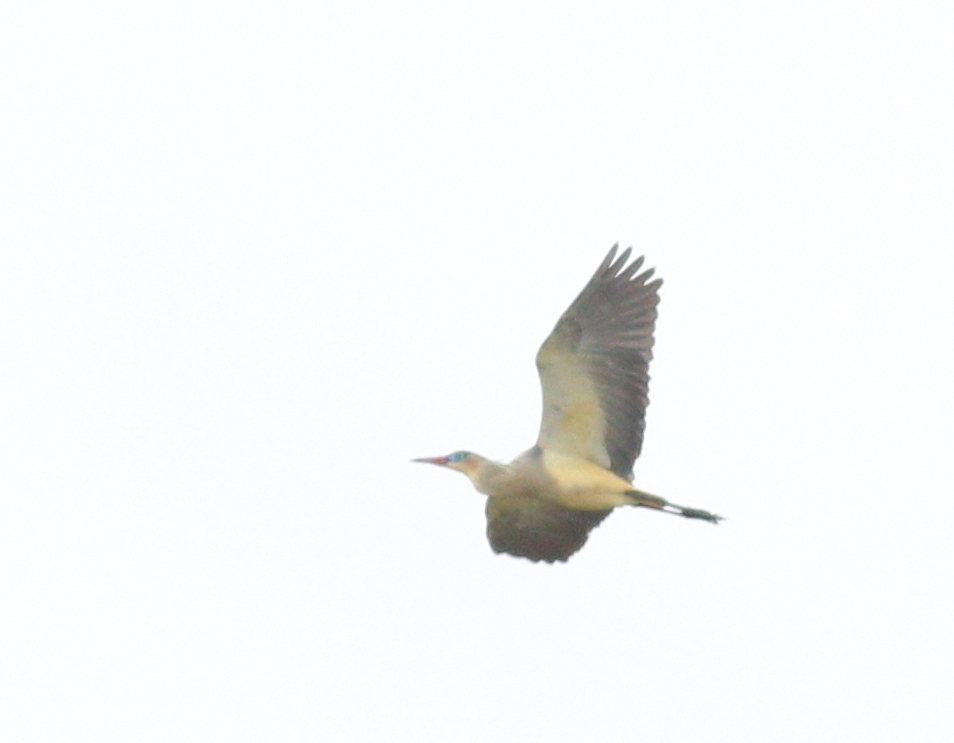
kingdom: Animalia
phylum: Chordata
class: Aves
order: Pelecaniformes
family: Ardeidae
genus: Syrigma
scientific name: Syrigma sibilatrix
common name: Whistling heron
